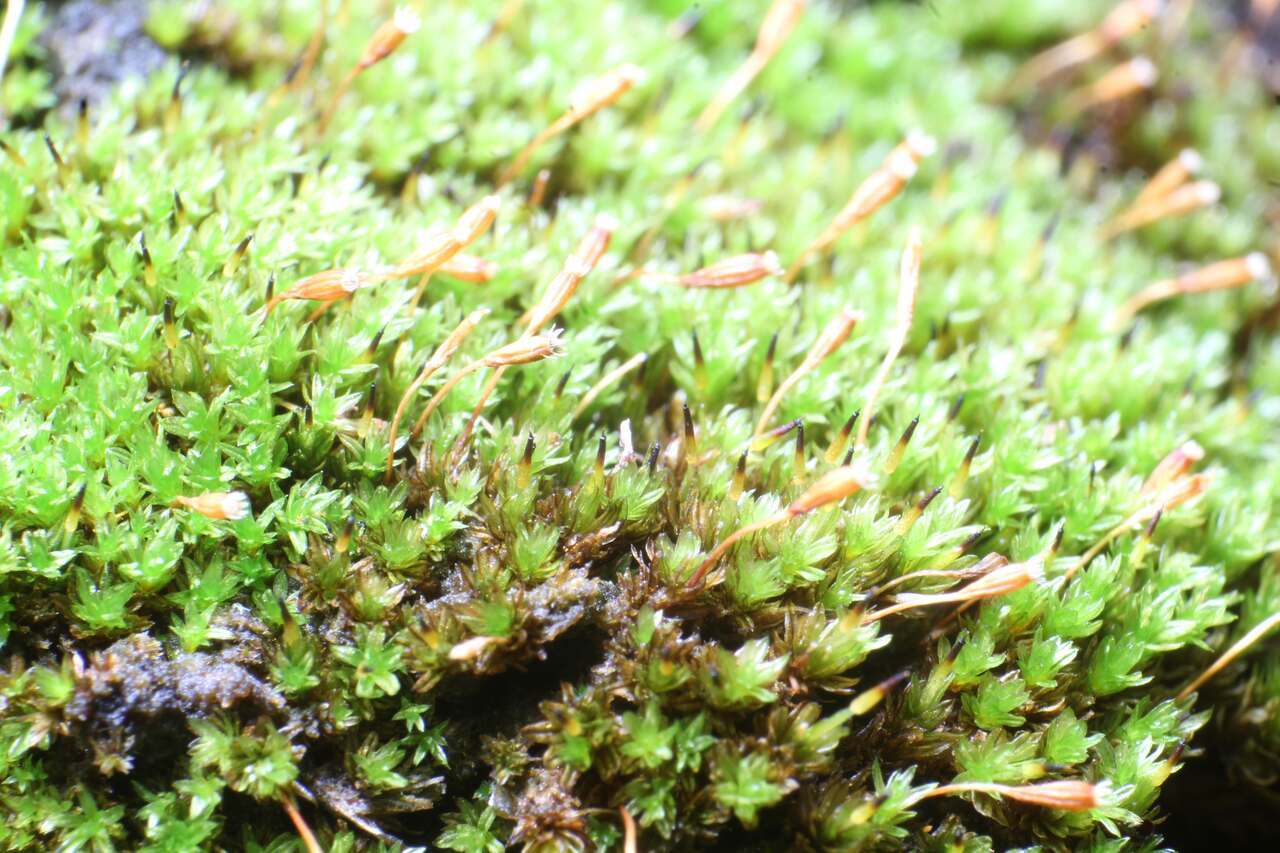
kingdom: Plantae
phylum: Bryophyta
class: Bryopsida
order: Orthotrichales
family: Orthotrichaceae
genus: Codonoblepharon
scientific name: Codonoblepharon menziesii
